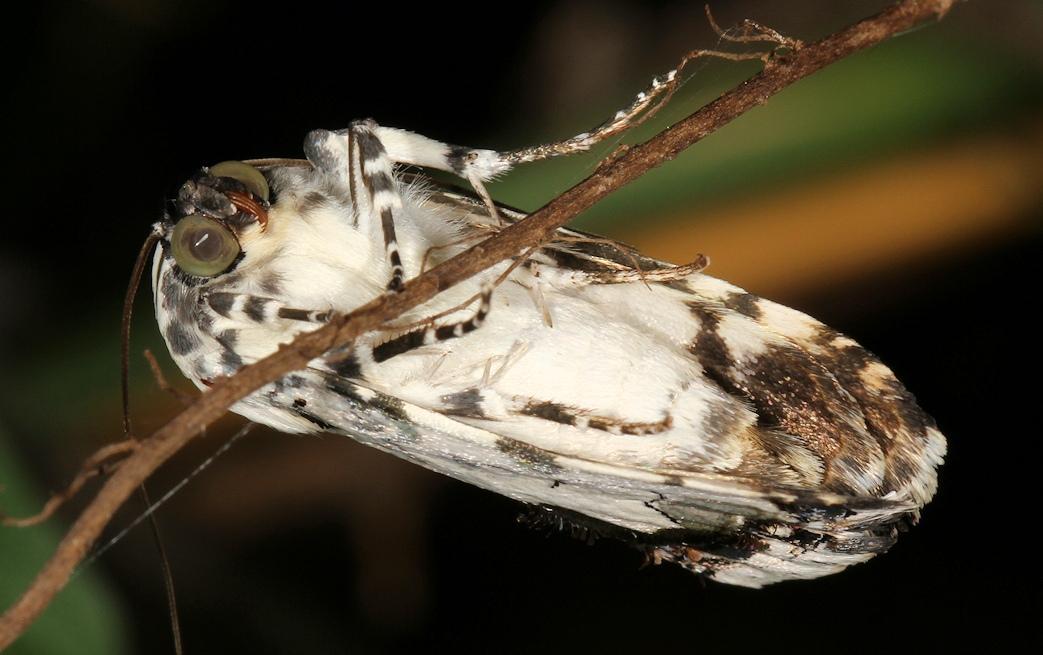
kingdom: Animalia
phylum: Arthropoda
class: Insecta
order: Lepidoptera
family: Noctuidae
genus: Acontia
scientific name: Acontia aurelia
